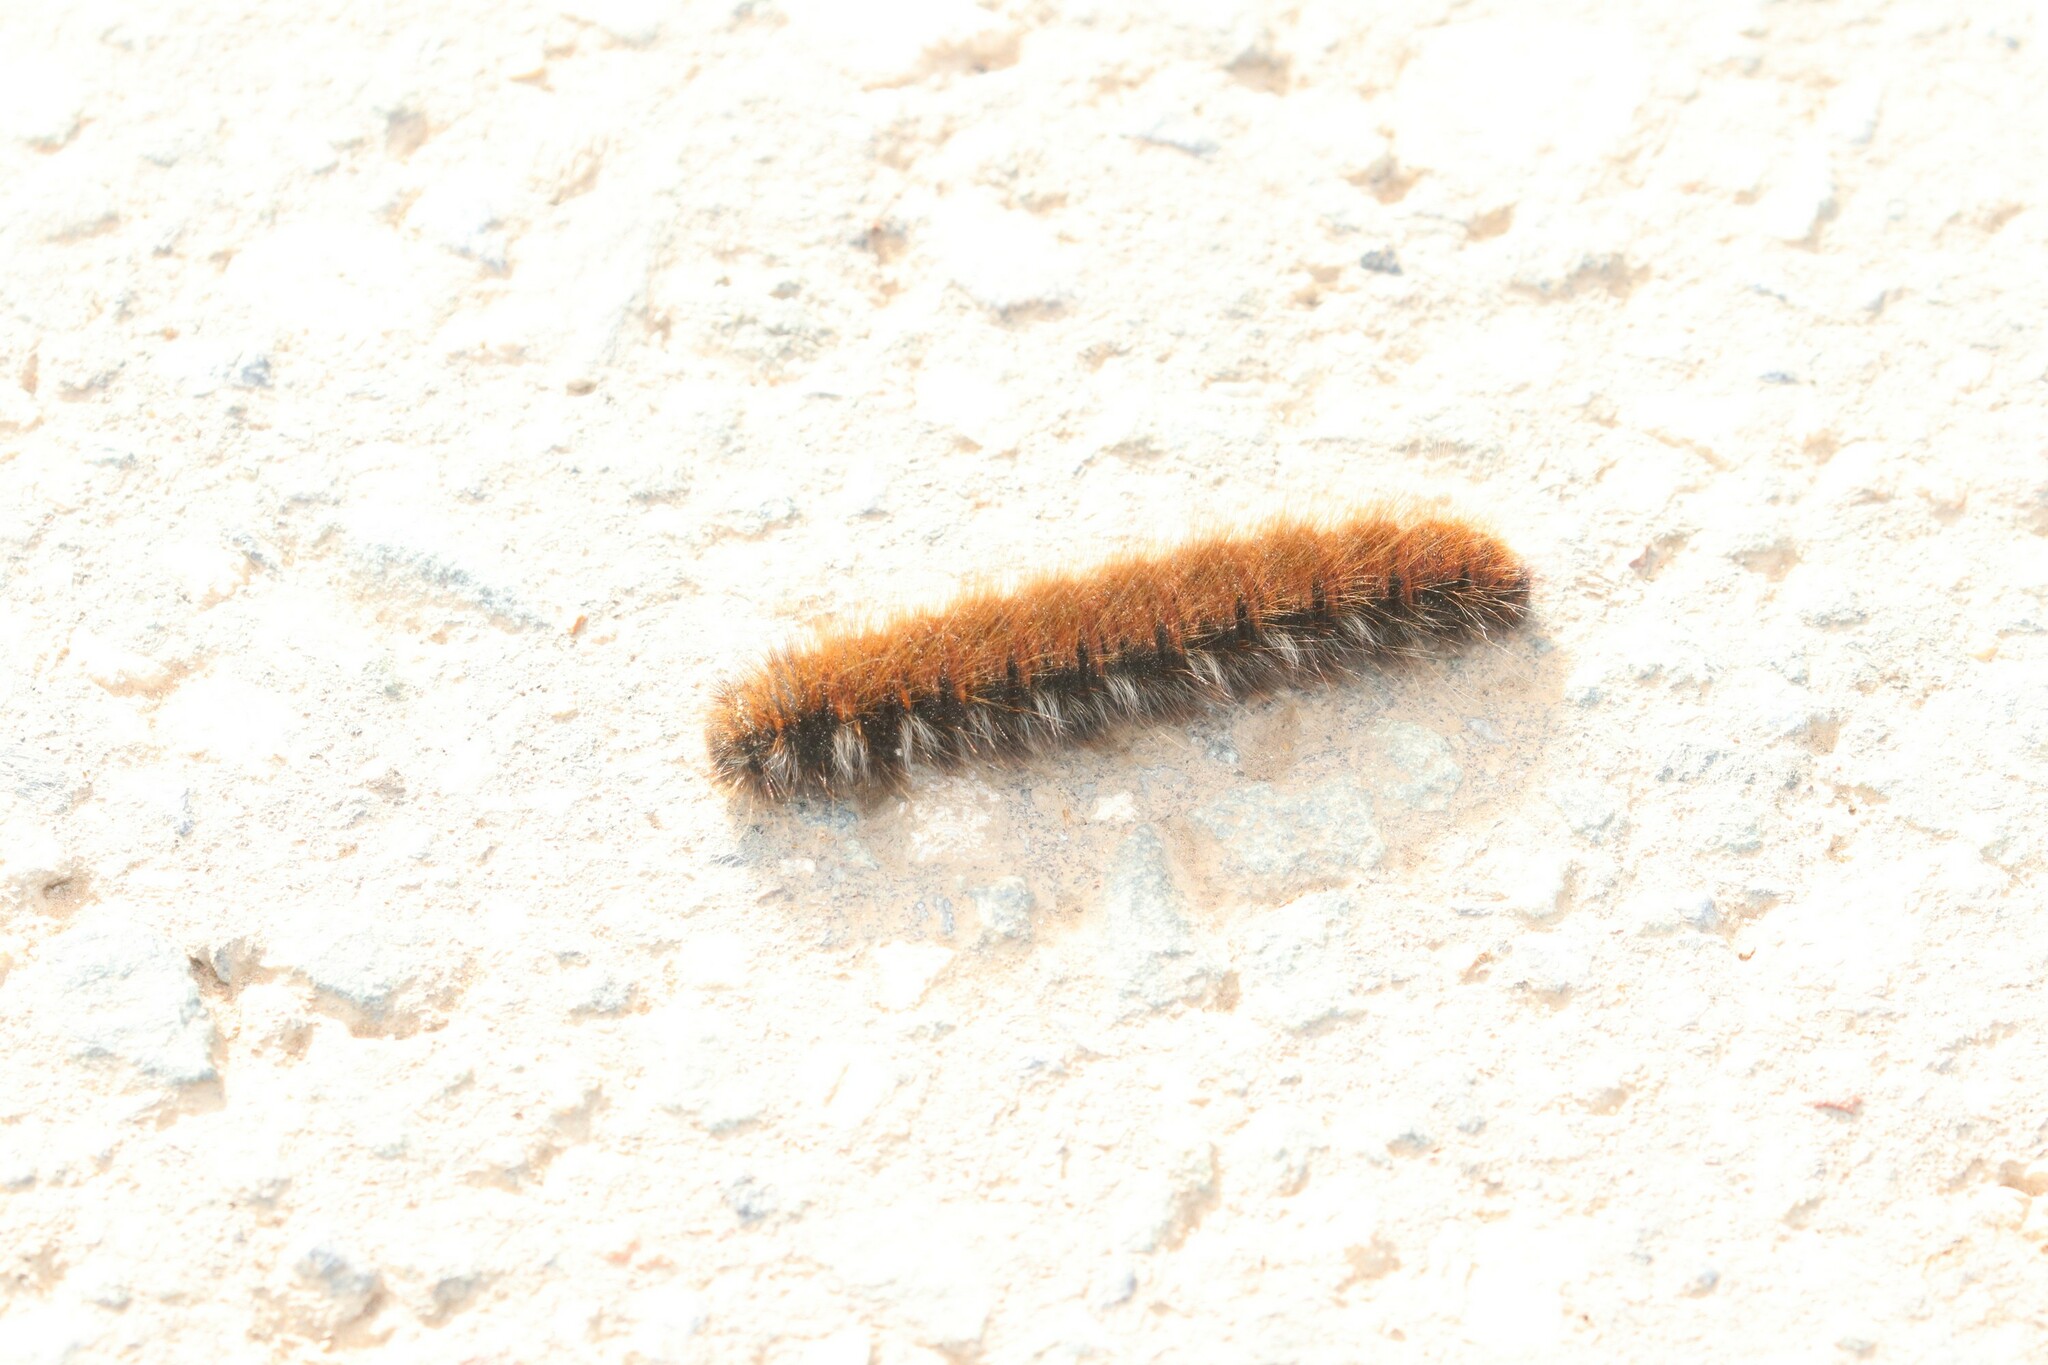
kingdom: Animalia
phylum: Arthropoda
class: Insecta
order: Lepidoptera
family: Lasiocampidae
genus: Macrothylacia
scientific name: Macrothylacia rubi
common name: Fox moth
